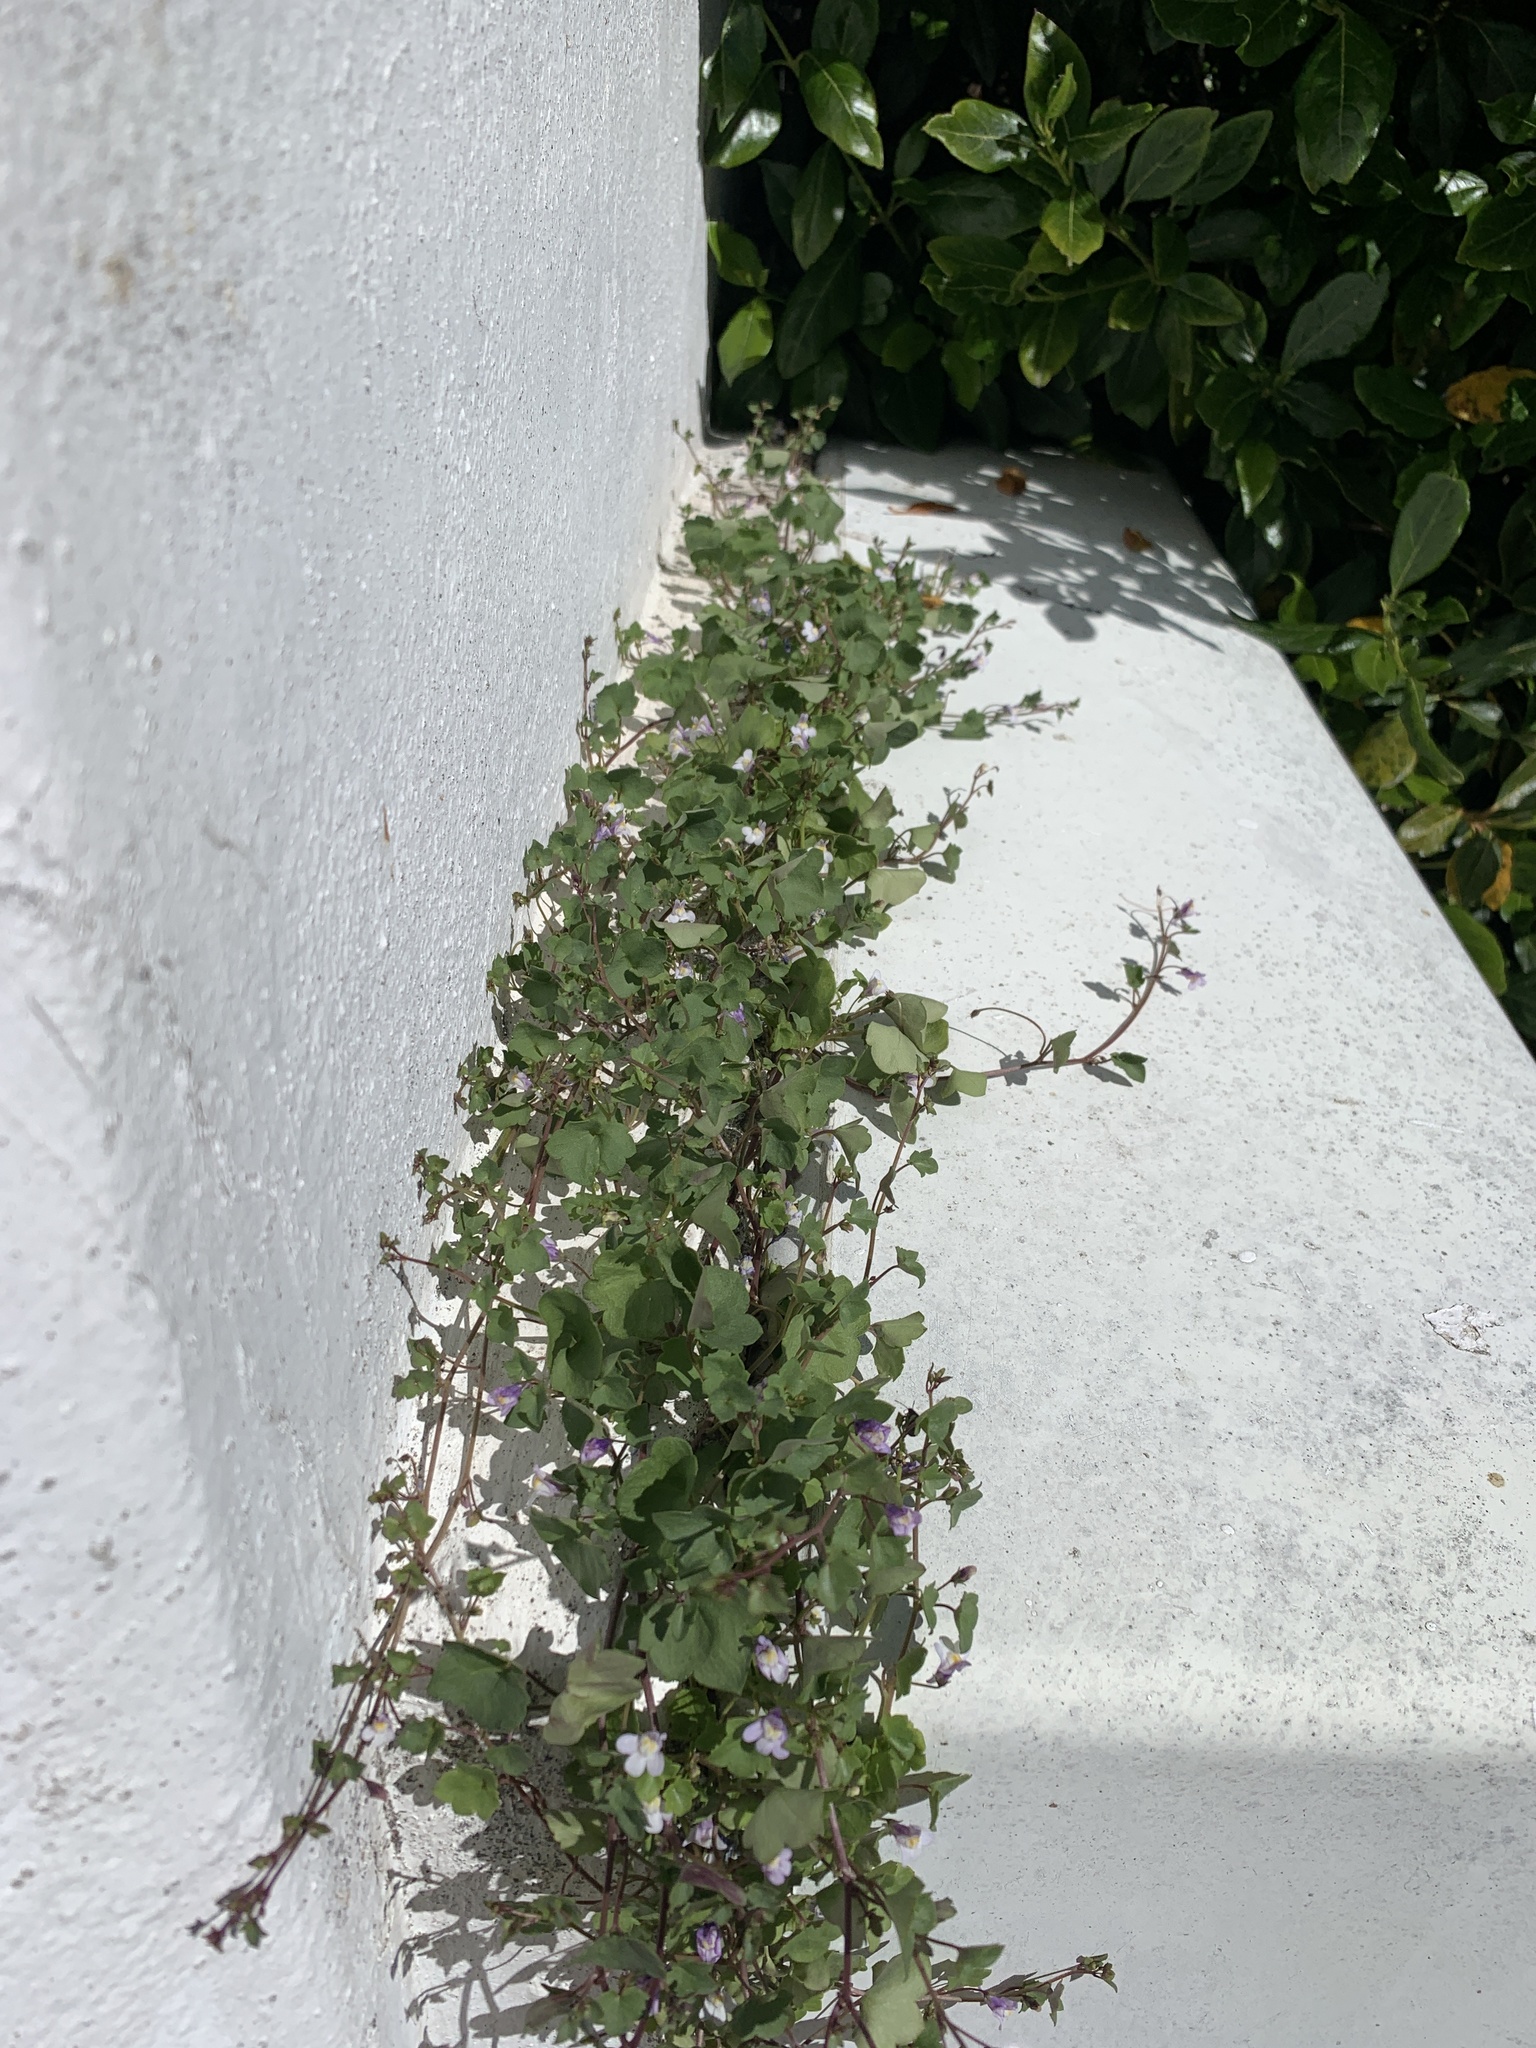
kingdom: Plantae
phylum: Tracheophyta
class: Magnoliopsida
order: Lamiales
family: Plantaginaceae
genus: Cymbalaria
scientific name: Cymbalaria muralis
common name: Ivy-leaved toadflax
